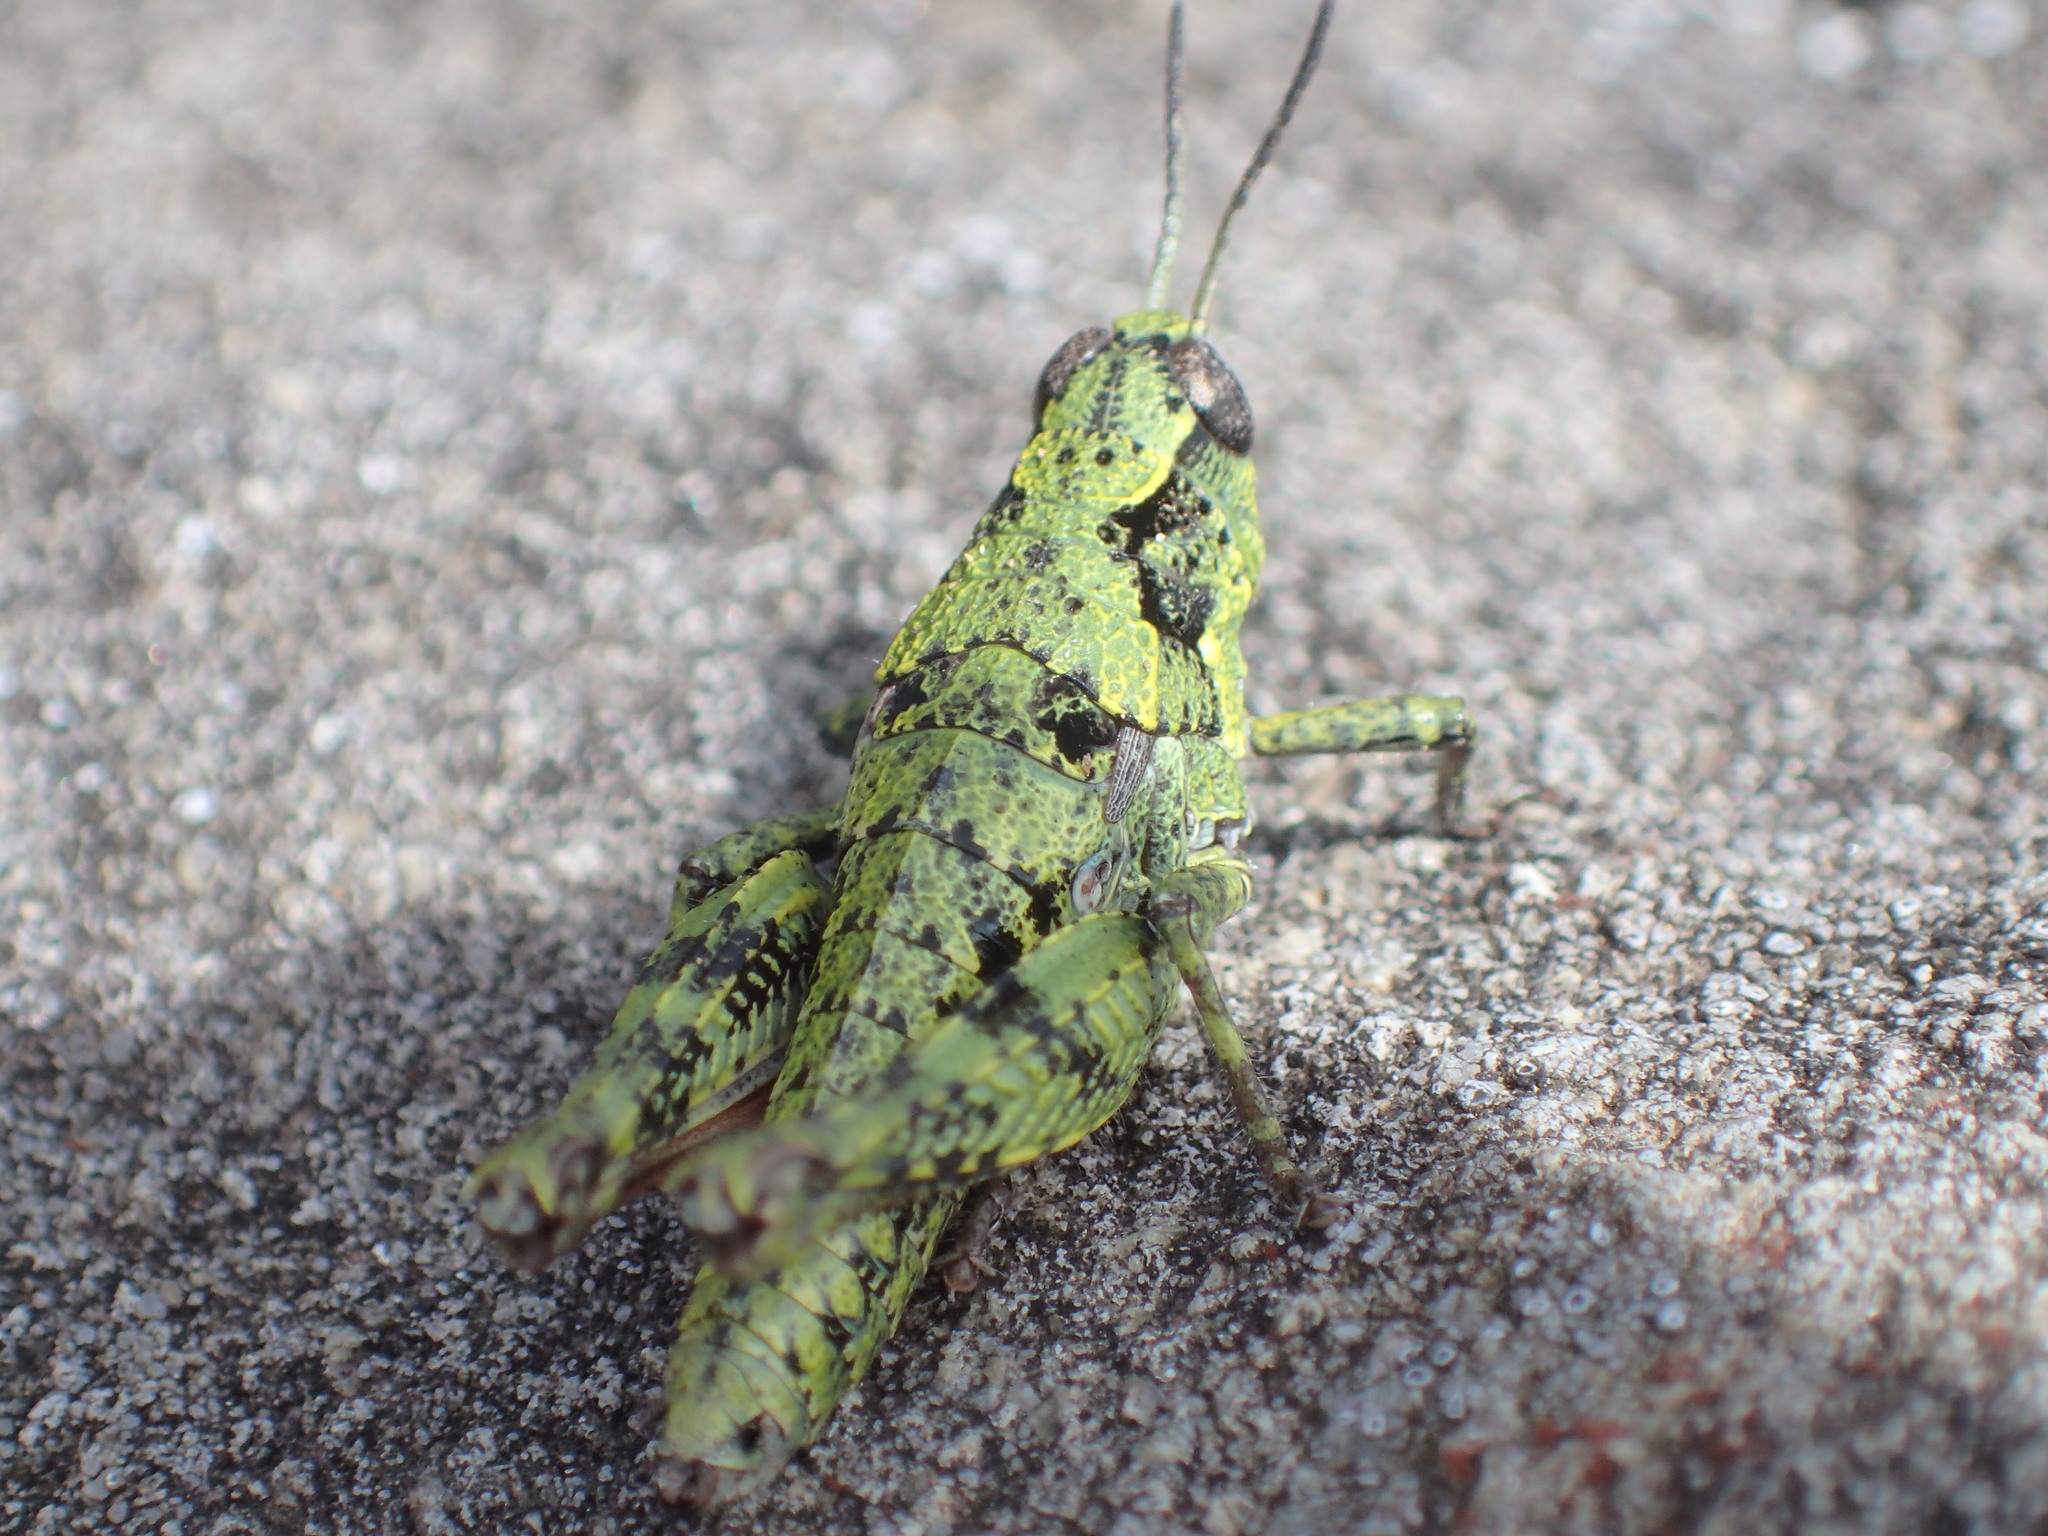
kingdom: Animalia
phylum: Arthropoda
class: Insecta
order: Orthoptera
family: Acrididae
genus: Tasmaniacris
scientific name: Tasmaniacris tasmaniensis
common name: Tasmanian grasshopper
